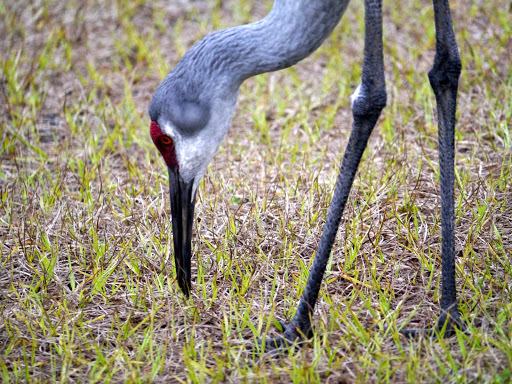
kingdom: Animalia
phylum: Chordata
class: Aves
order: Gruiformes
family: Gruidae
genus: Grus
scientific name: Grus canadensis
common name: Sandhill crane
